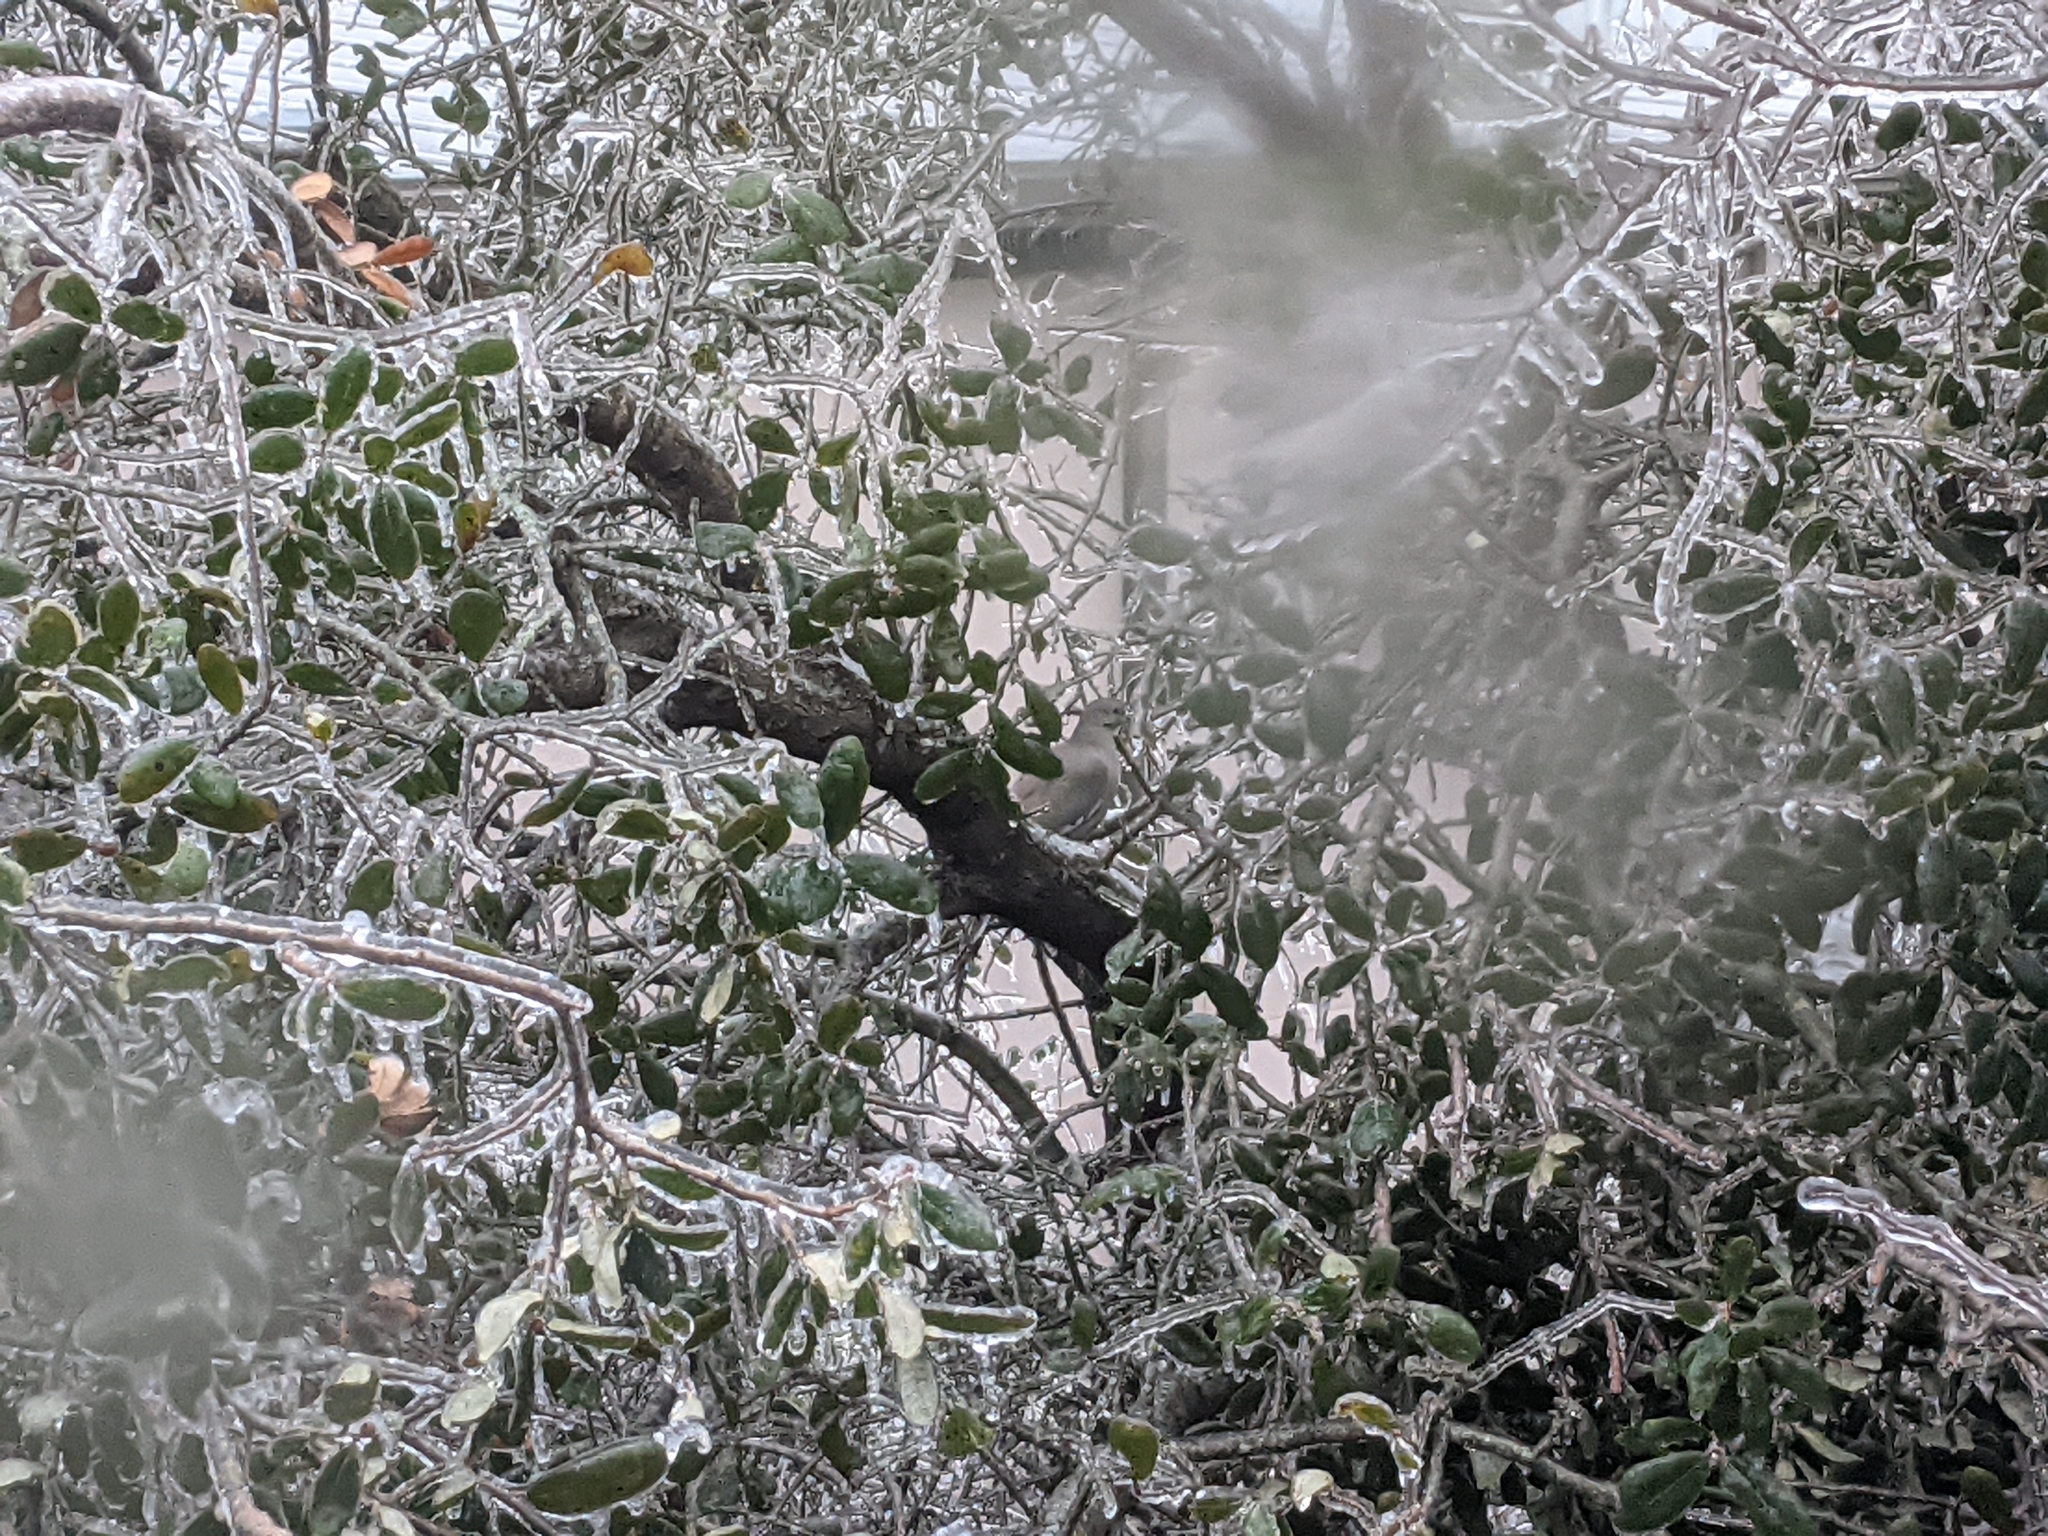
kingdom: Animalia
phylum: Chordata
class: Aves
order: Columbiformes
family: Columbidae
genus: Zenaida
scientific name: Zenaida asiatica
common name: White-winged dove
